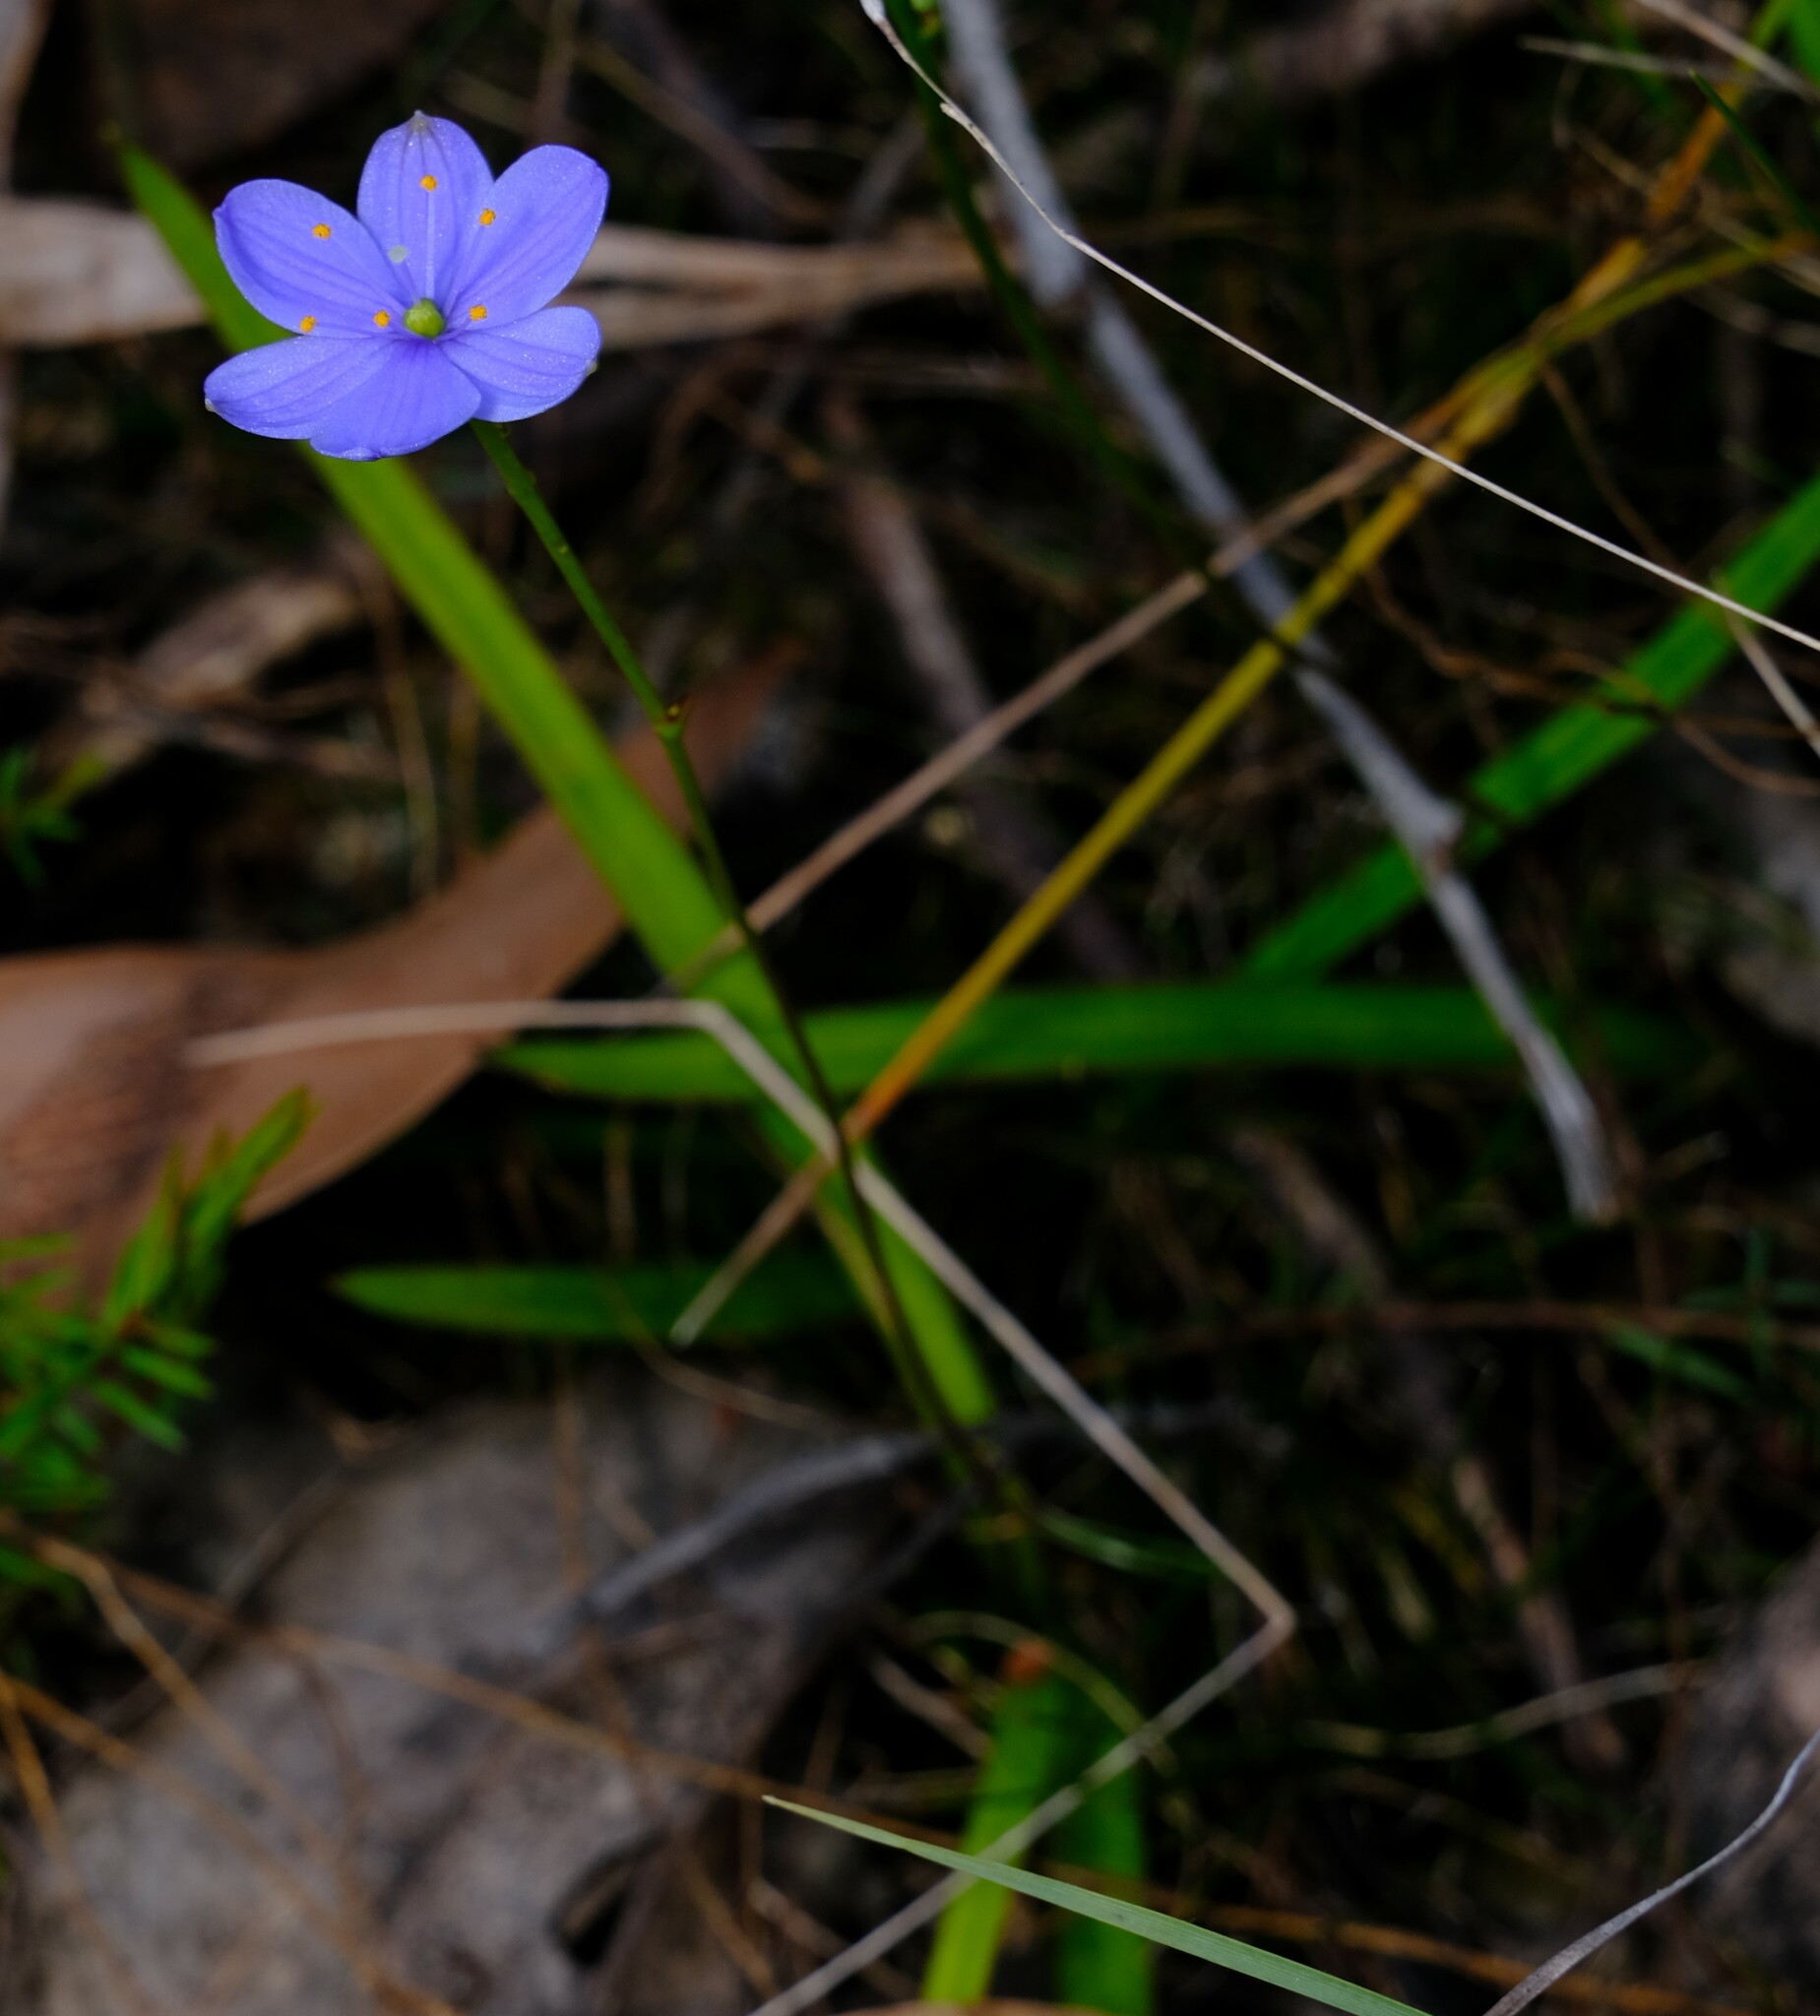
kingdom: Plantae
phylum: Tracheophyta
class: Liliopsida
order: Asparagales
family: Asphodelaceae
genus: Chamaescilla
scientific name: Chamaescilla corymbosa
